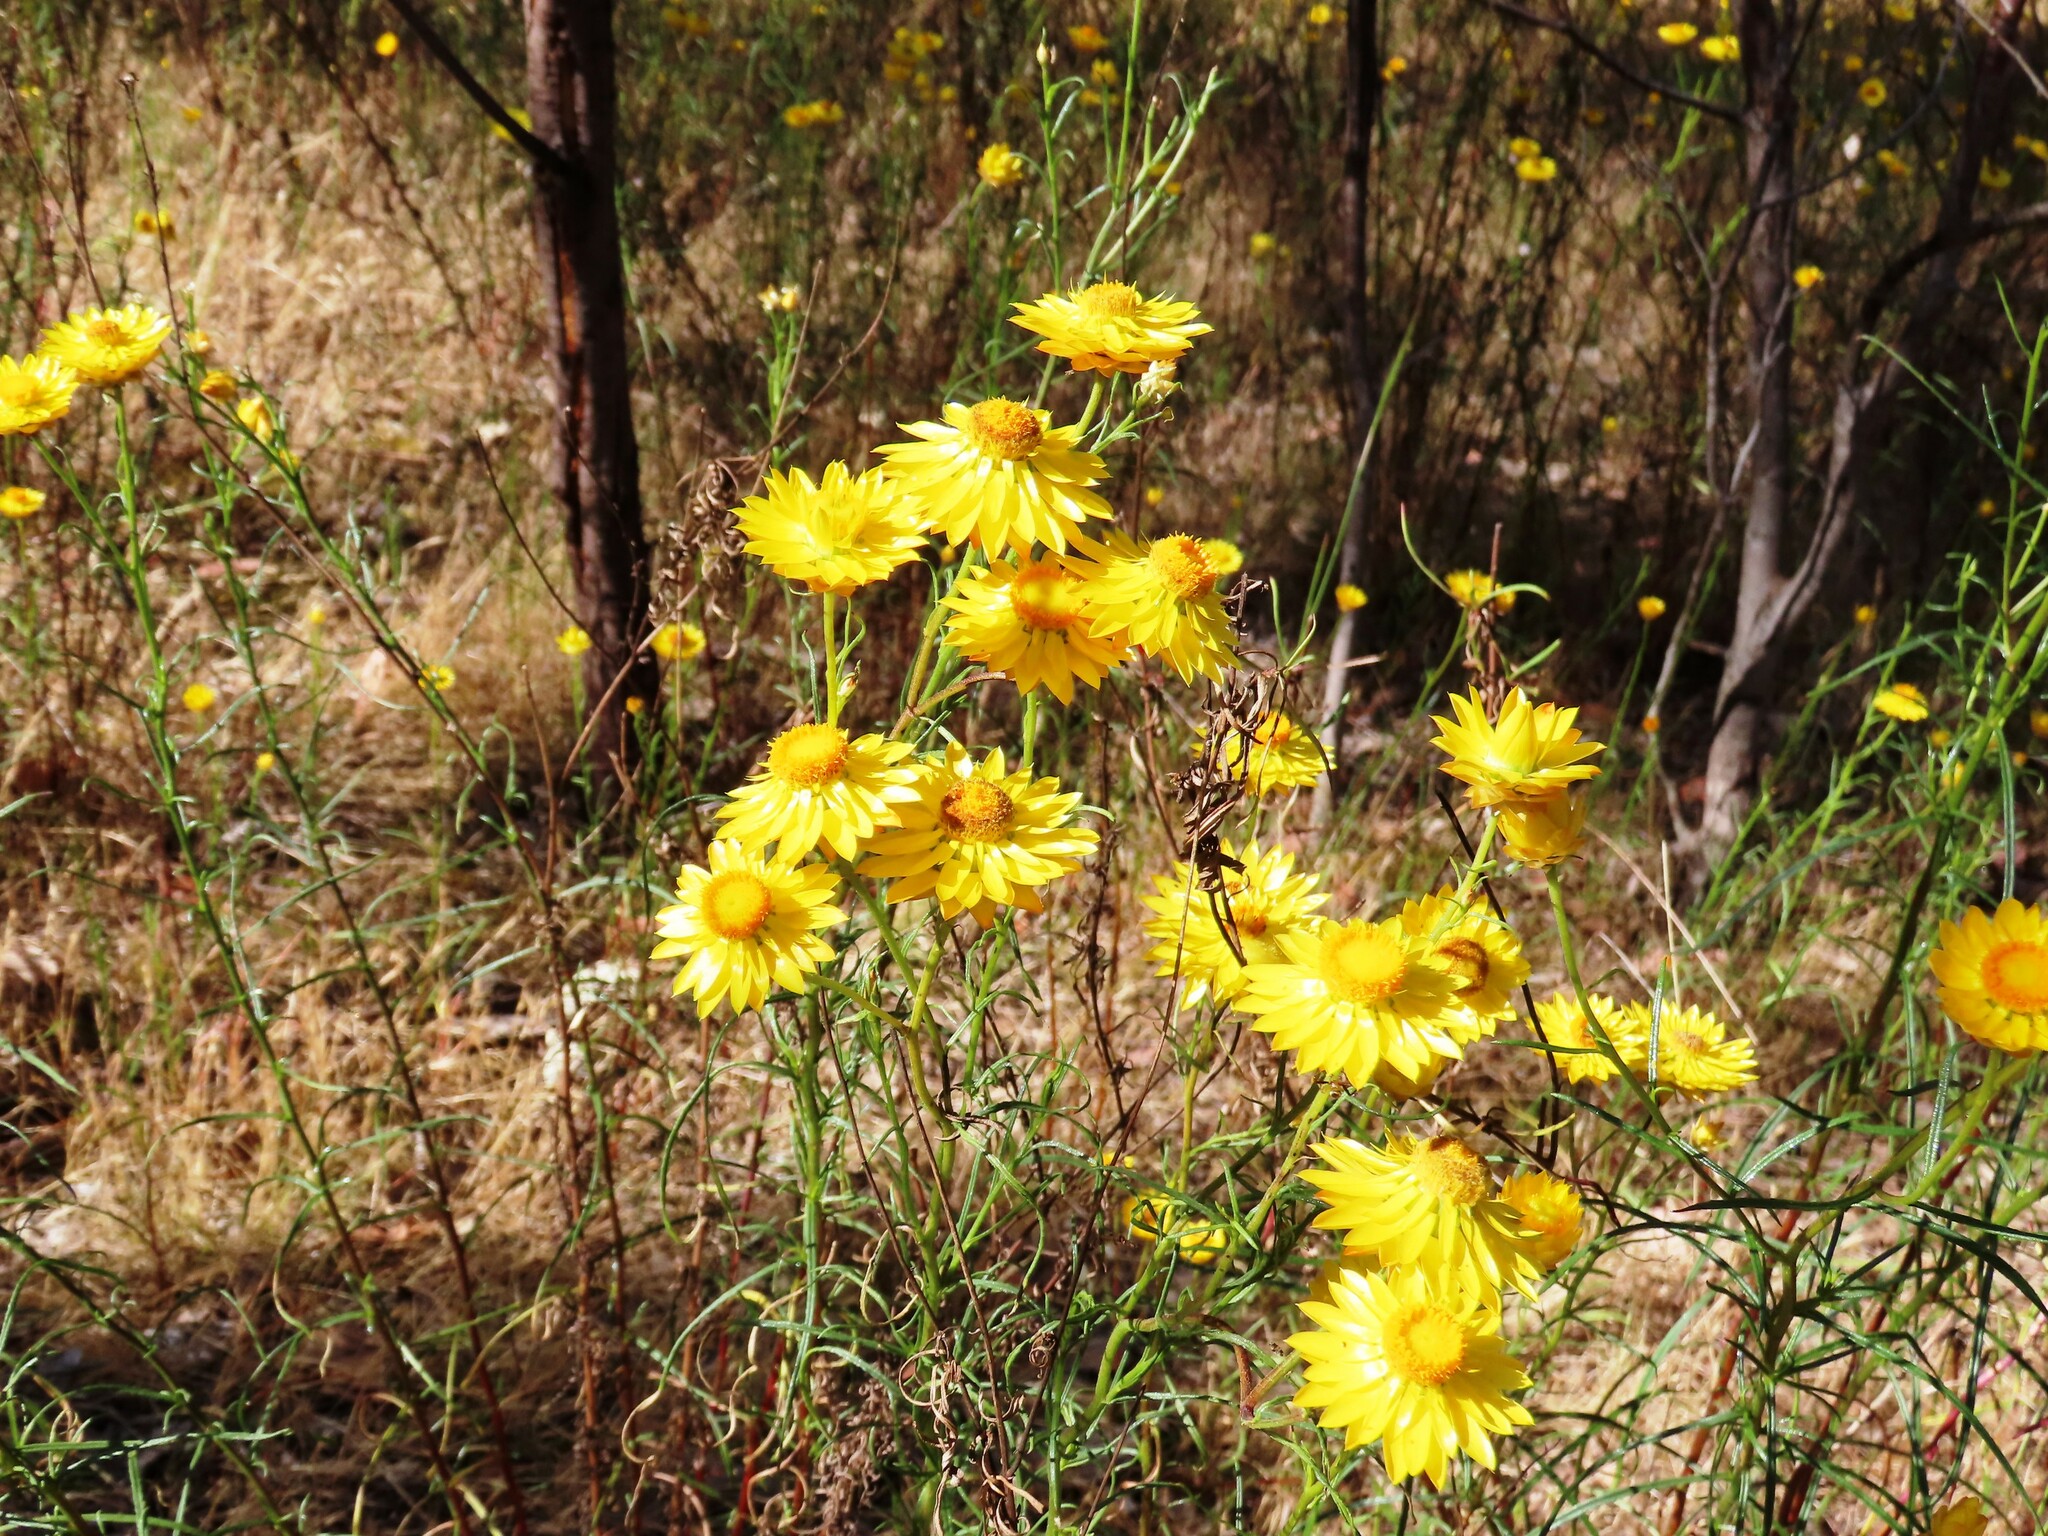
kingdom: Plantae
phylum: Tracheophyta
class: Magnoliopsida
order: Asterales
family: Asteraceae
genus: Xerochrysum
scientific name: Xerochrysum viscosum
